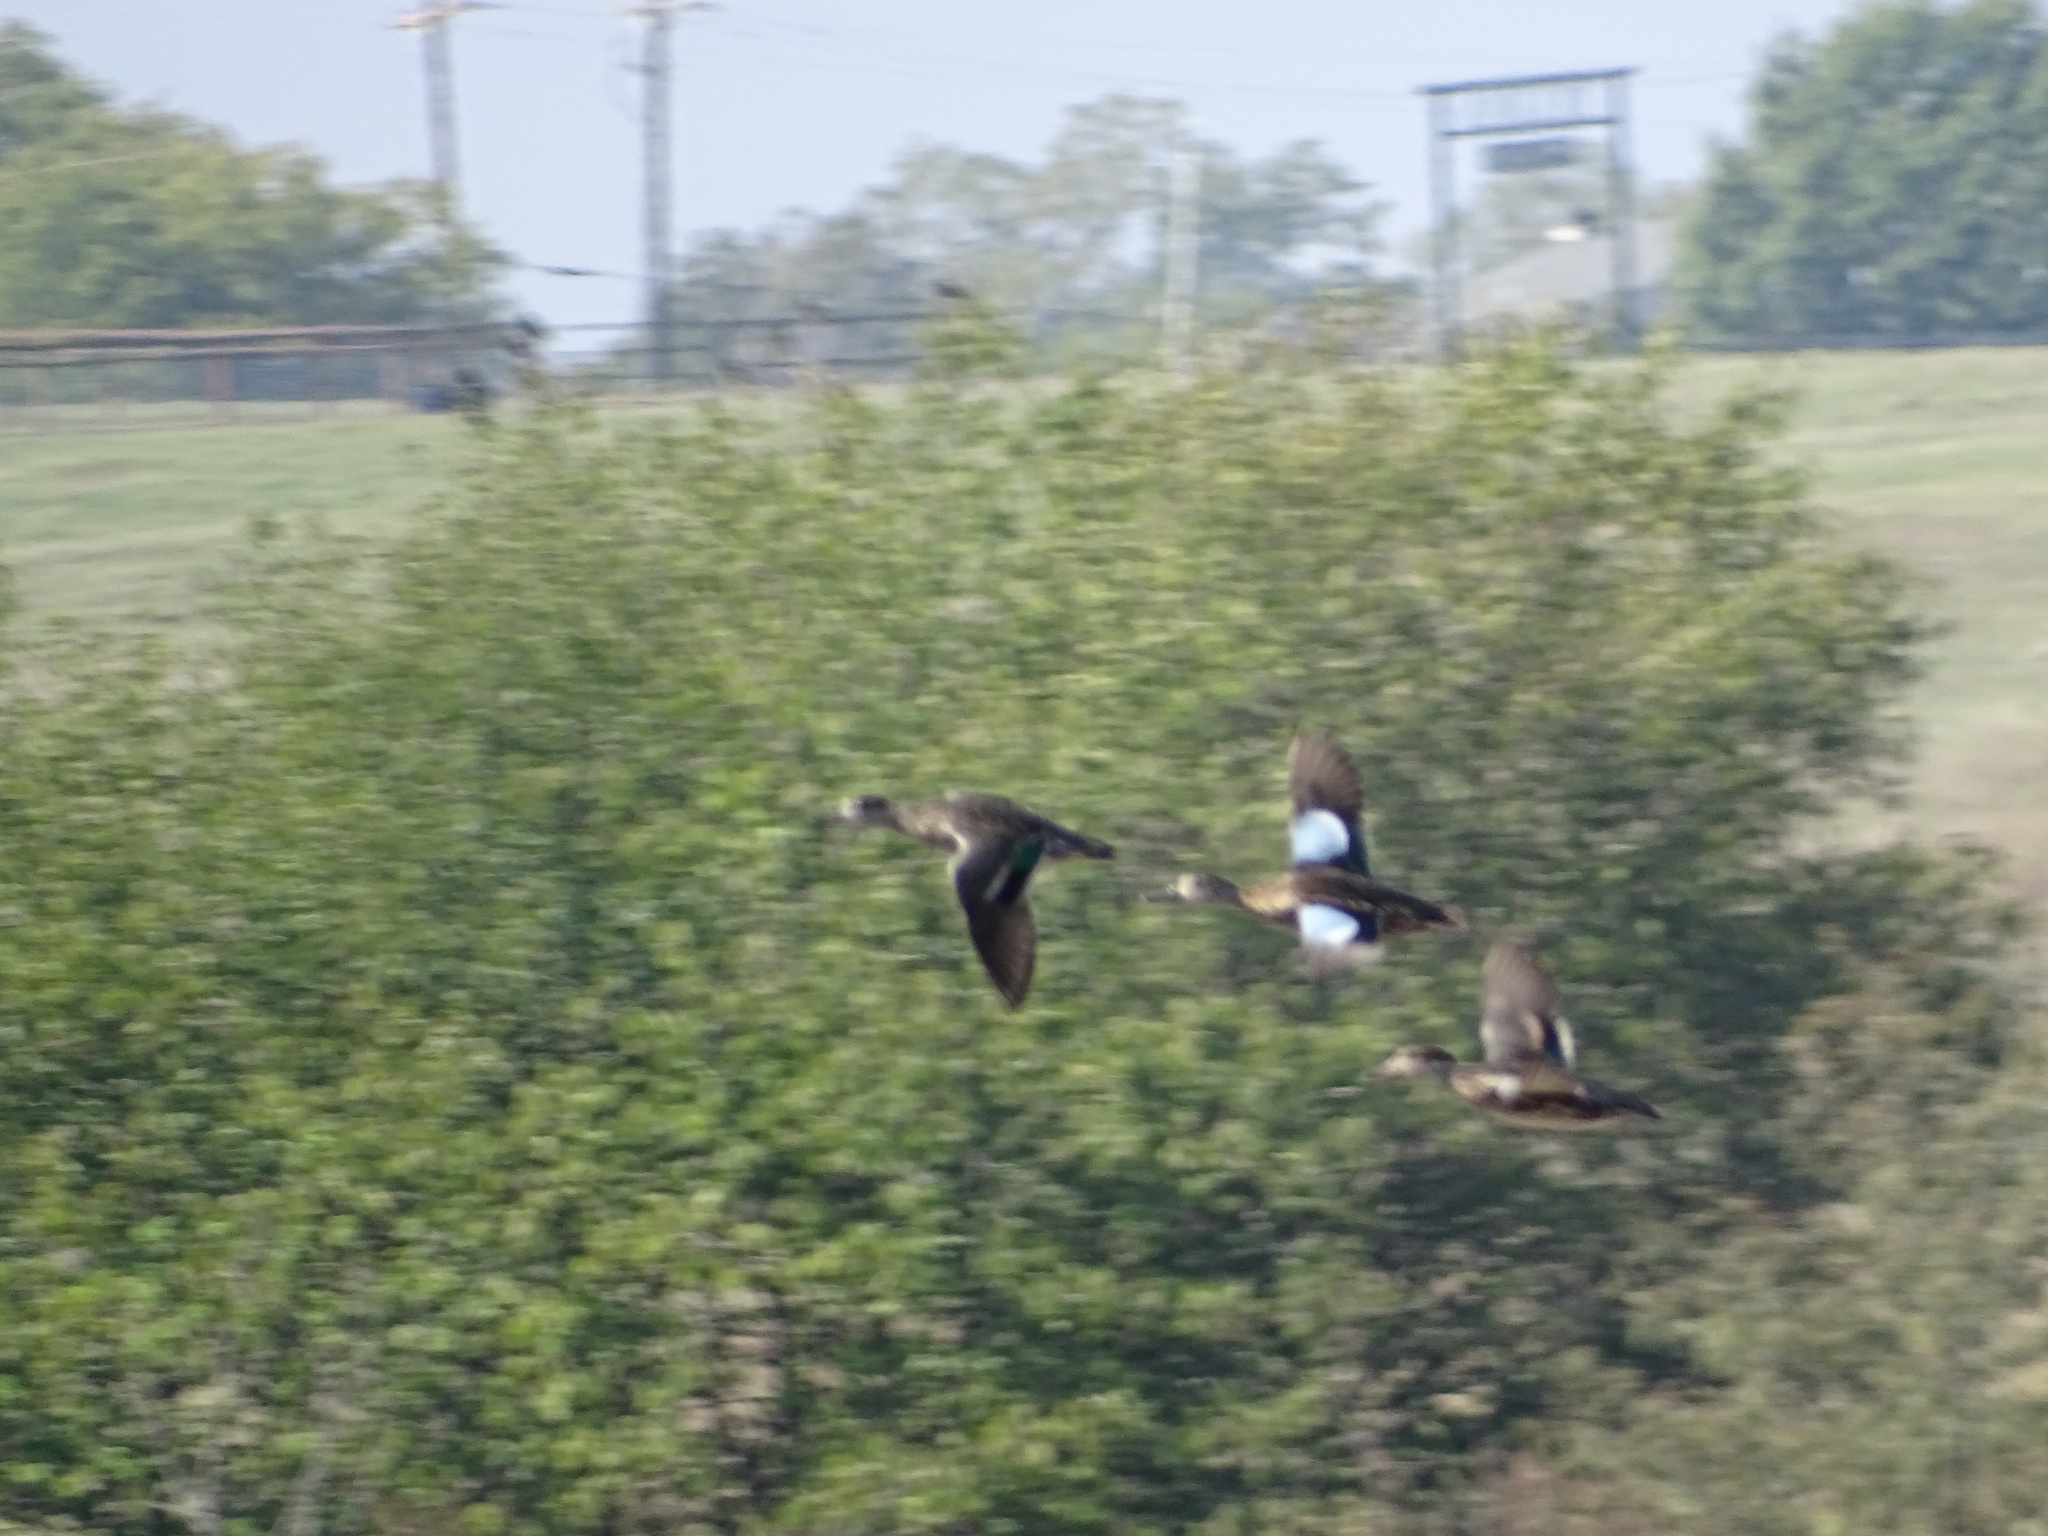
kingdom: Animalia
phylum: Chordata
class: Aves
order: Anseriformes
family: Anatidae
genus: Spatula
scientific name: Spatula discors
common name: Blue-winged teal
